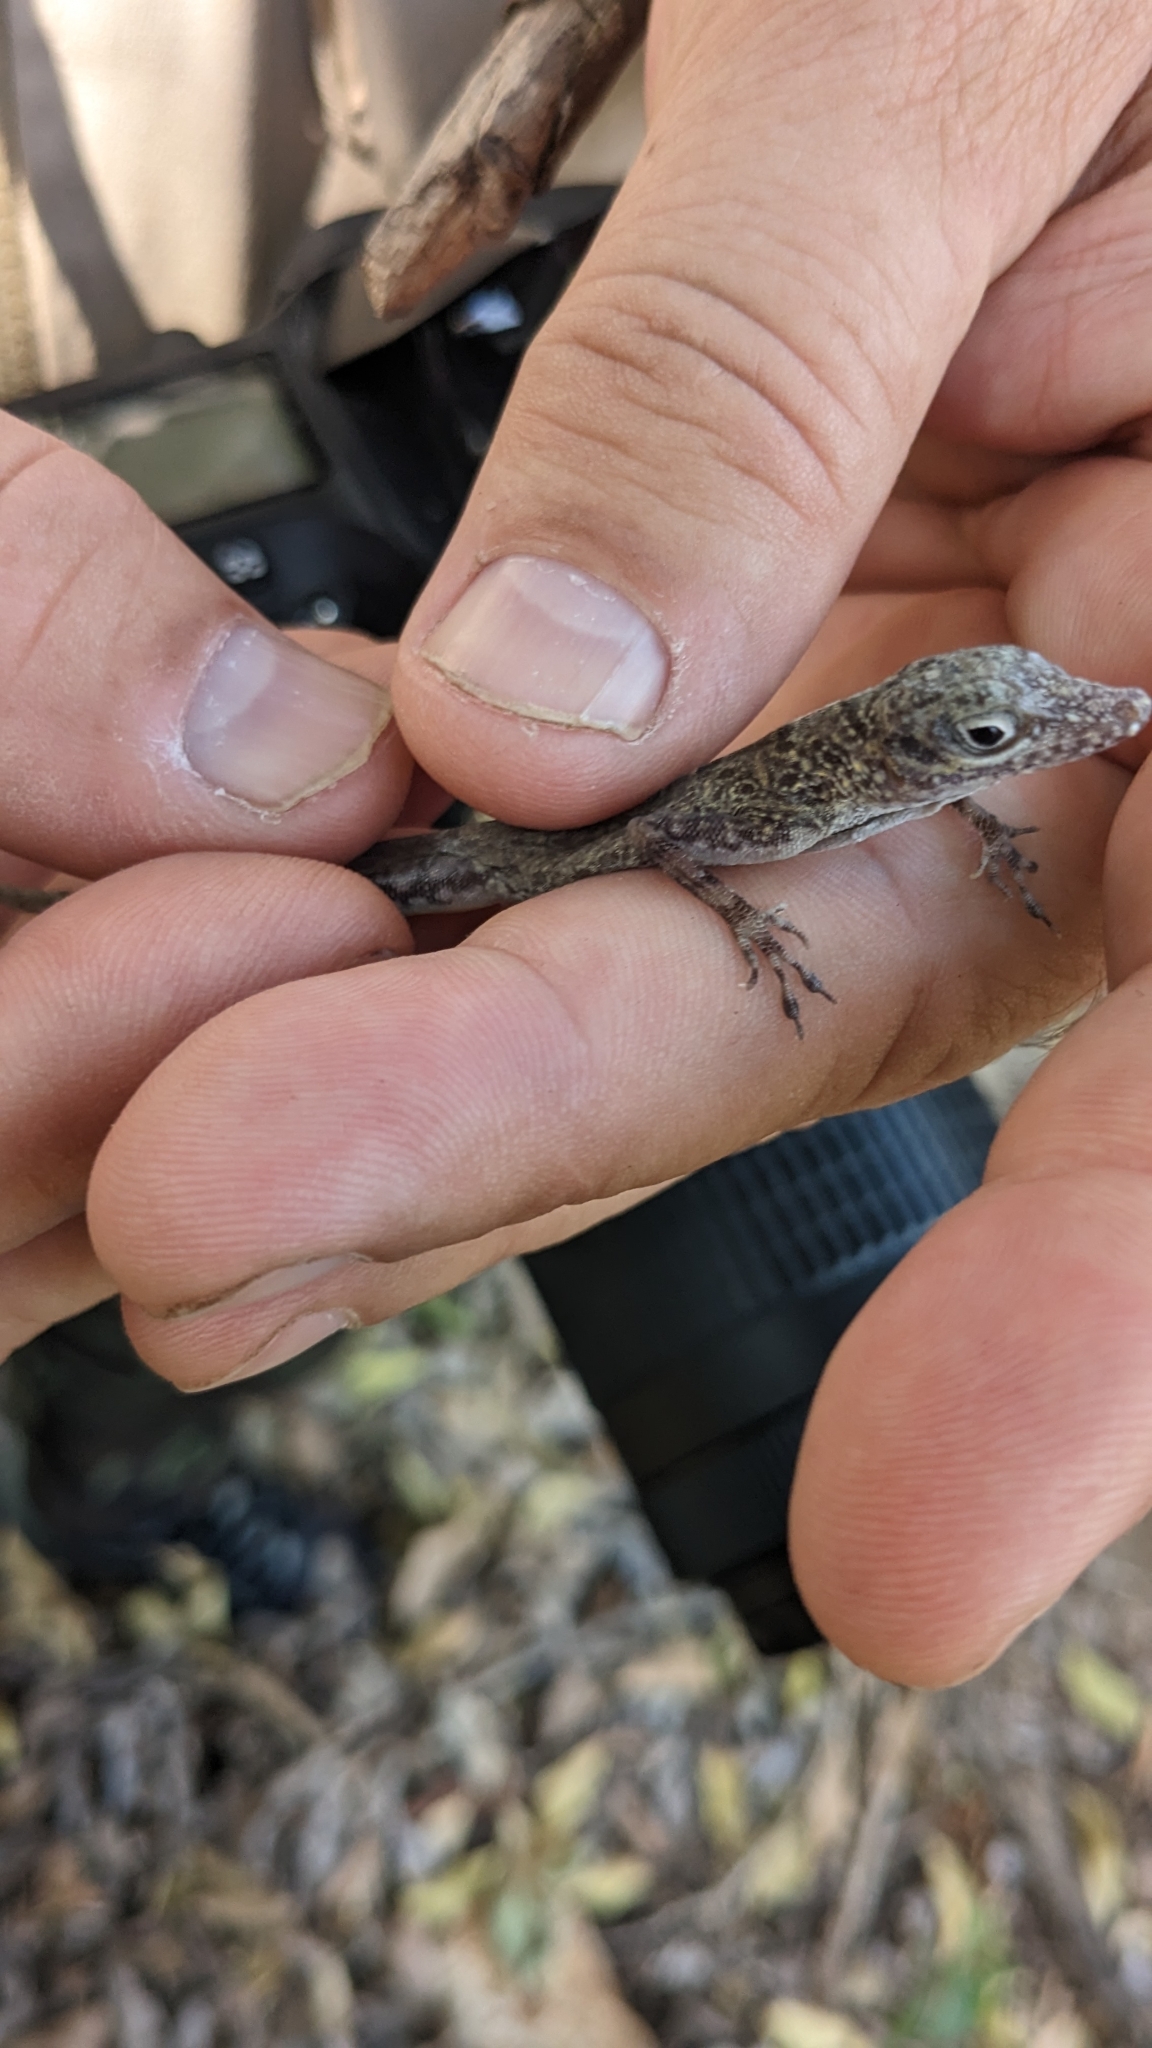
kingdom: Animalia
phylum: Chordata
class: Squamata
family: Dactyloidae
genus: Anolis
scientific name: Anolis argenteolus
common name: Guantanamo anole
